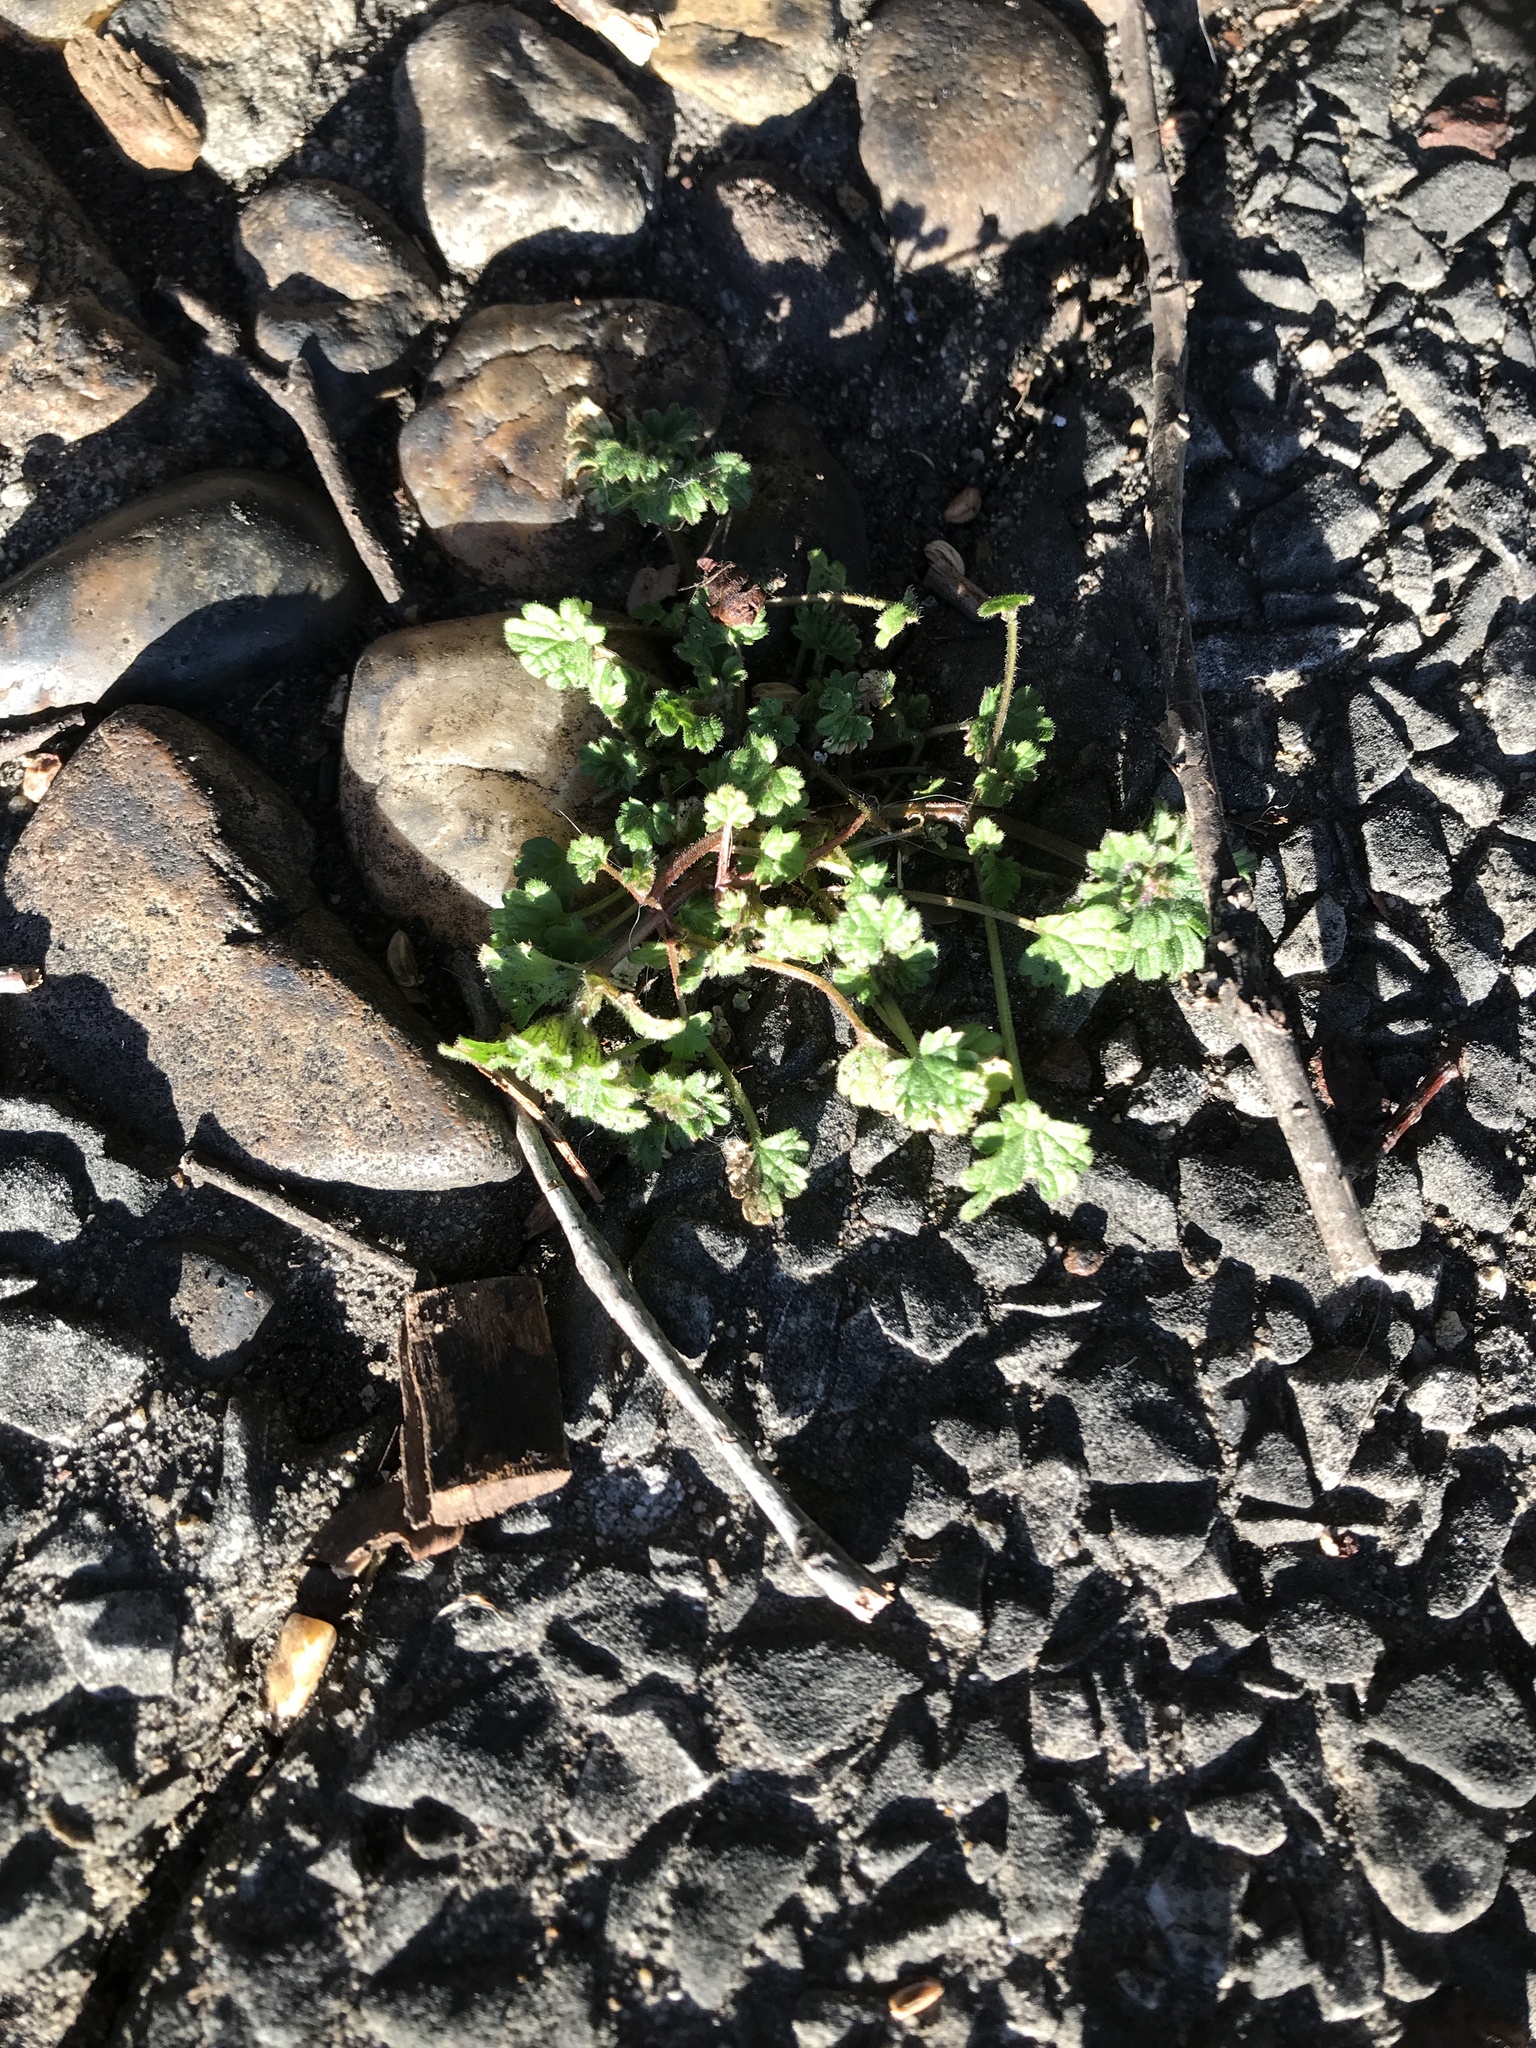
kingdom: Plantae
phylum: Tracheophyta
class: Magnoliopsida
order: Lamiales
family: Lamiaceae
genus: Lamium
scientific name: Lamium amplexicaule
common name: Henbit dead-nettle
